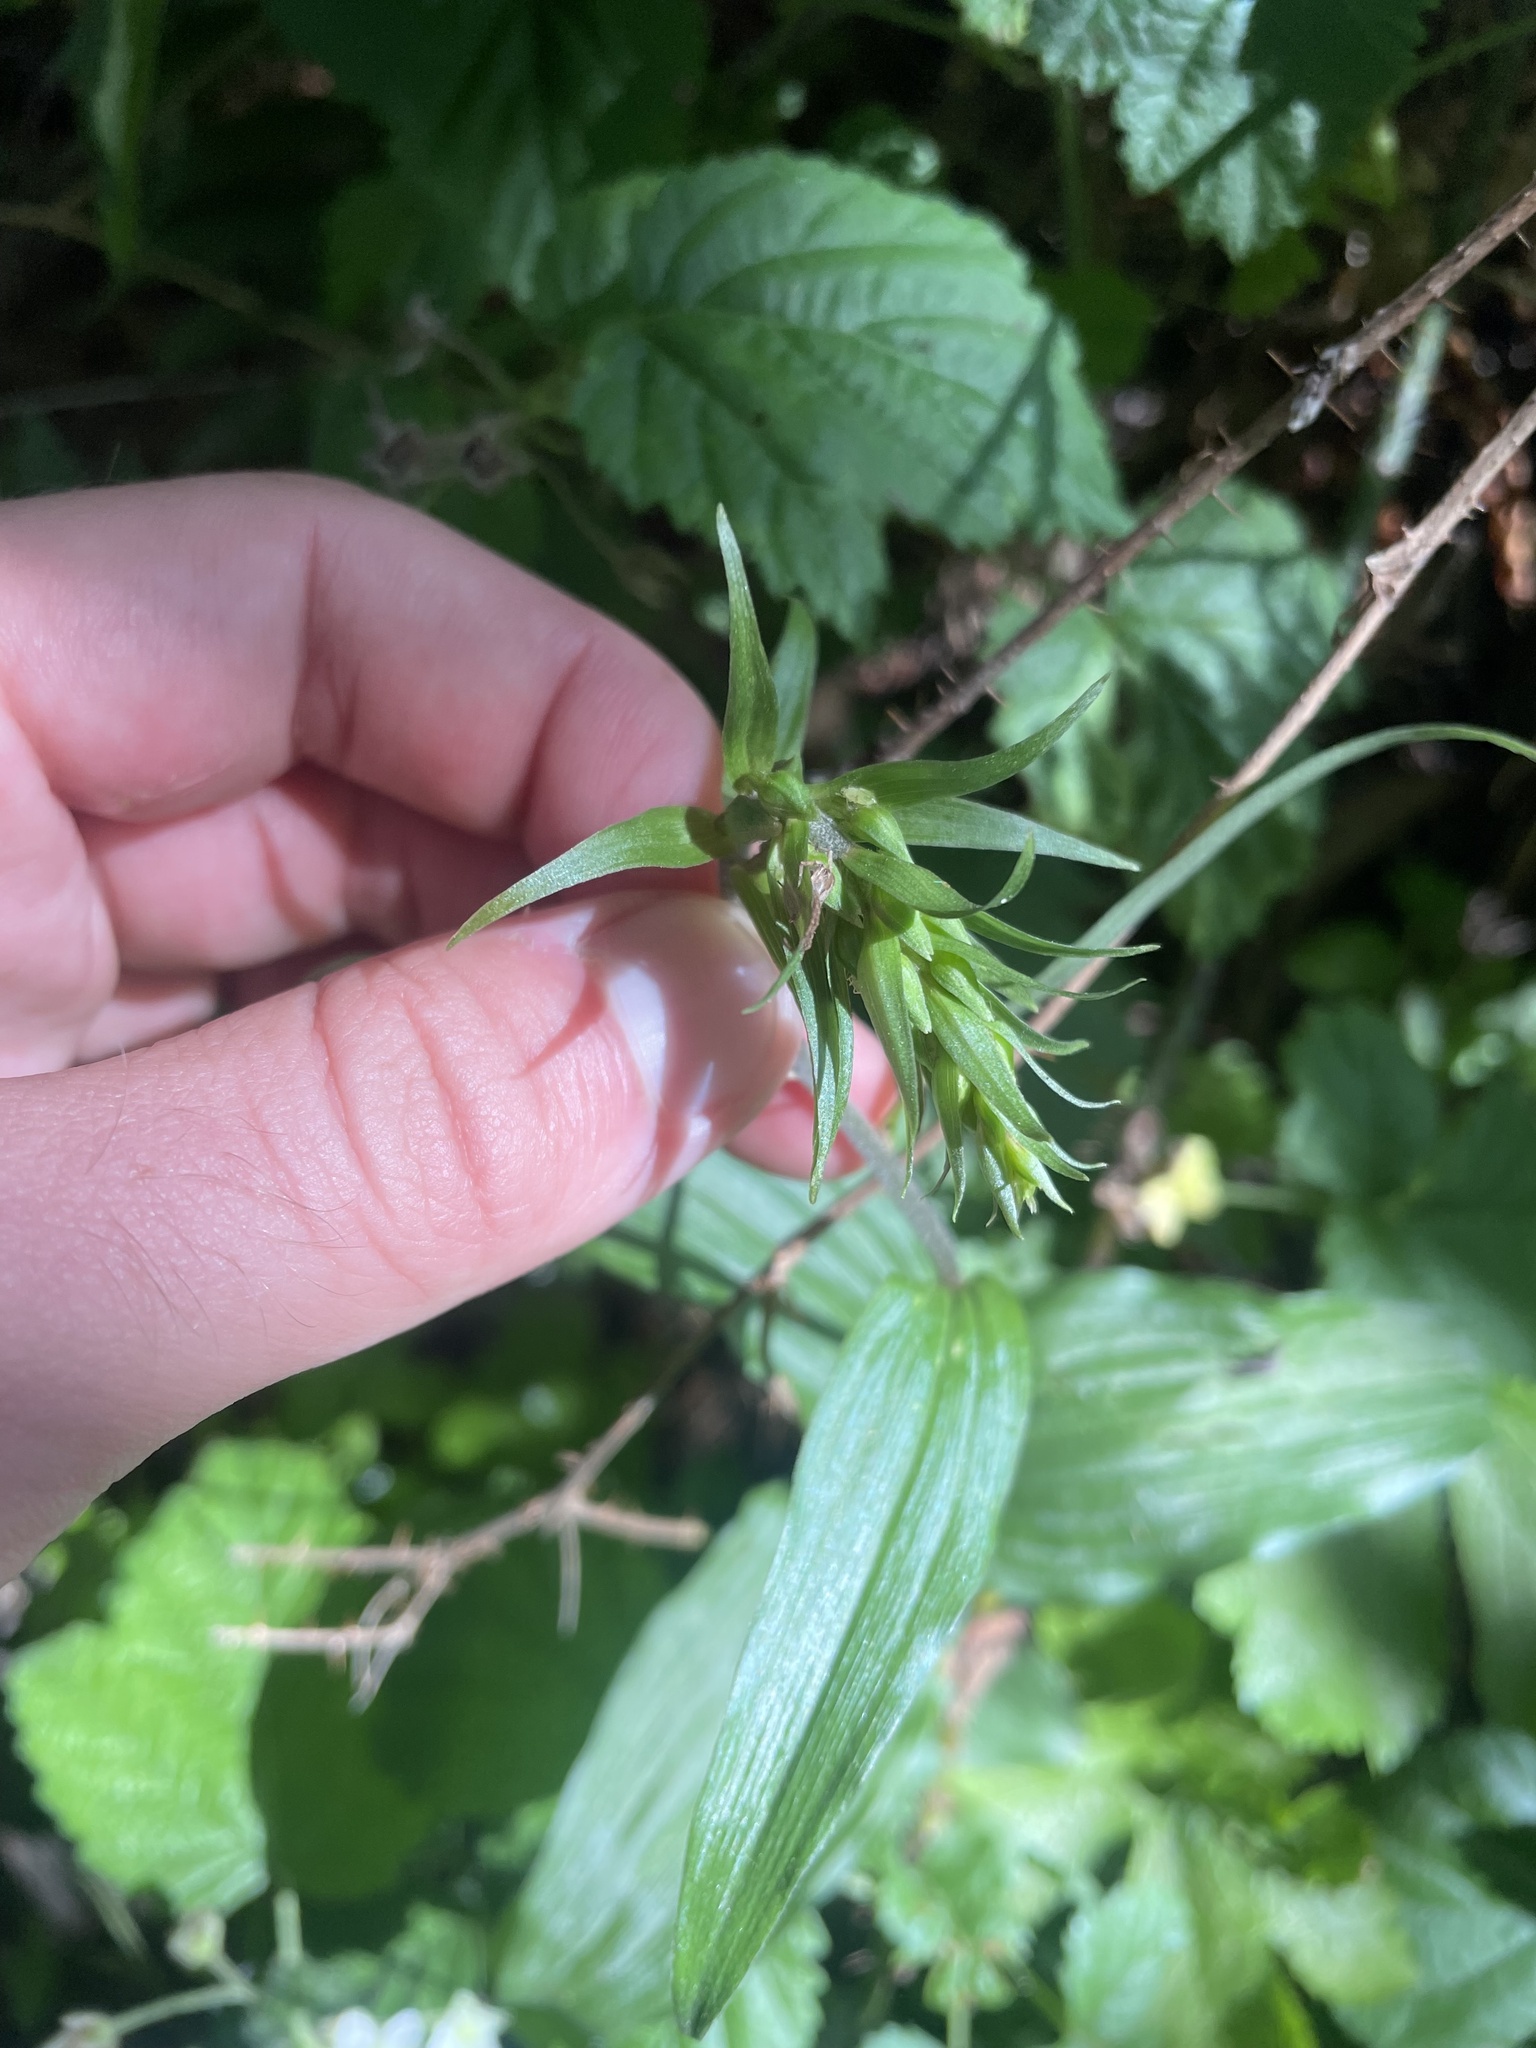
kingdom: Plantae
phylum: Tracheophyta
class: Liliopsida
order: Asparagales
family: Orchidaceae
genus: Epipactis
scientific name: Epipactis helleborine
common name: Broad-leaved helleborine
